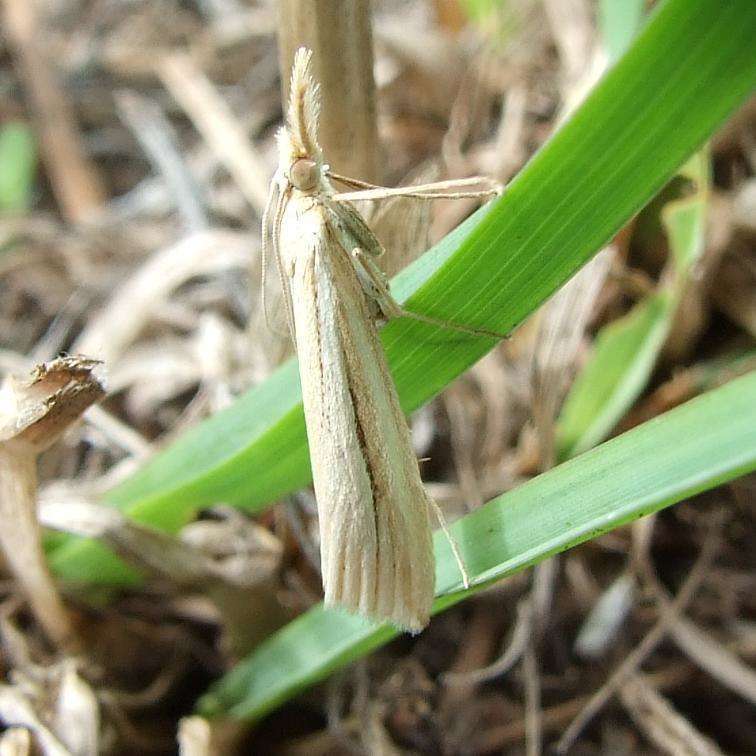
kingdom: Animalia
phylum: Arthropoda
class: Insecta
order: Lepidoptera
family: Crambidae
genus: Hednota
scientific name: Hednota grammellus
